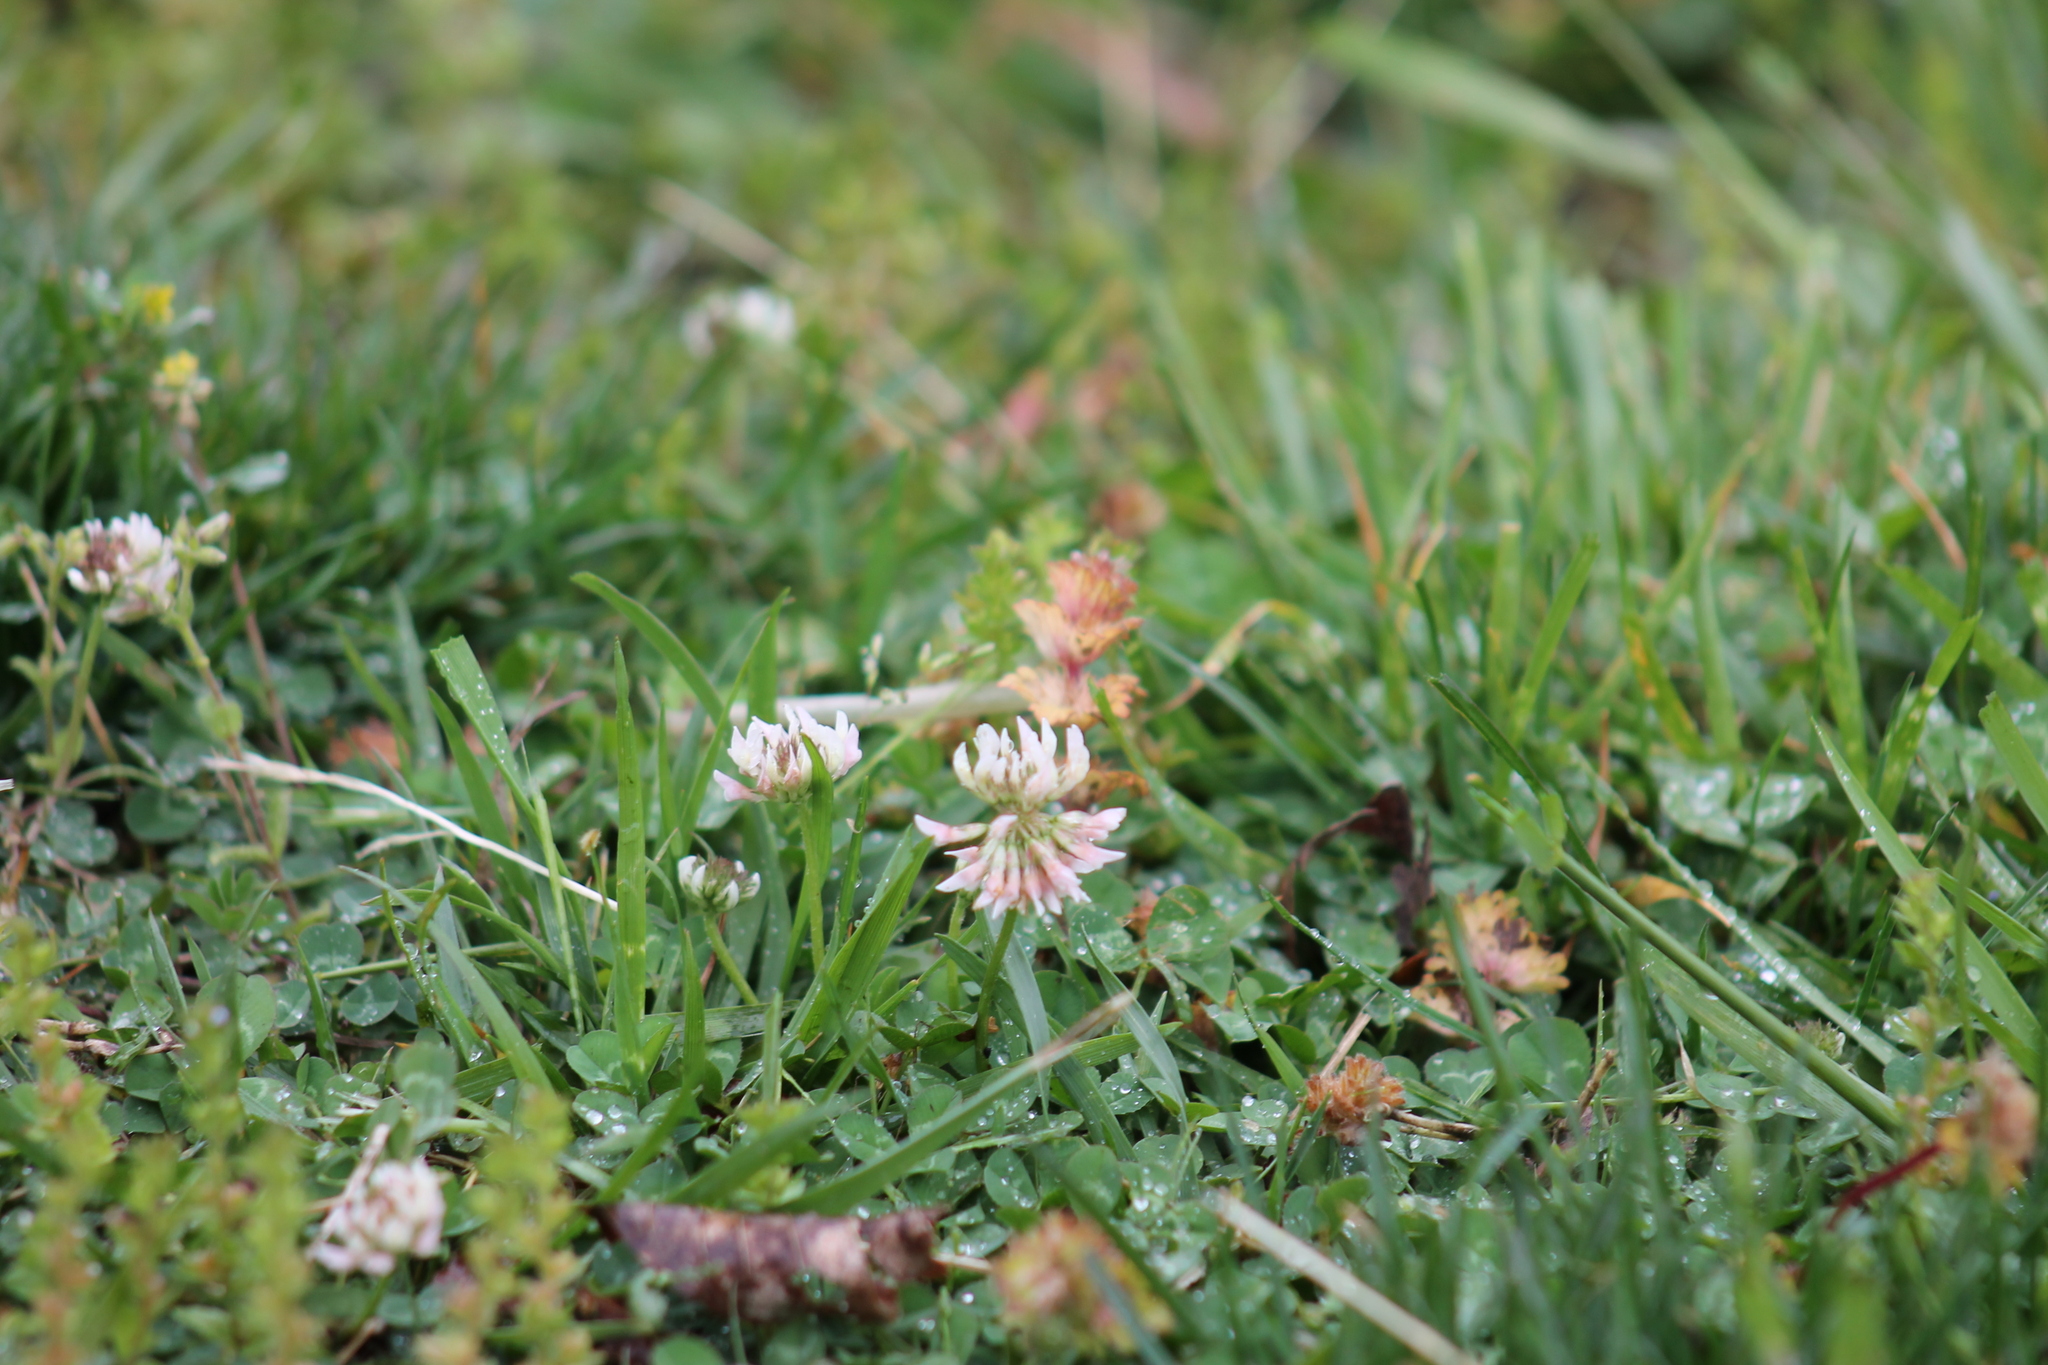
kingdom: Plantae
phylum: Tracheophyta
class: Magnoliopsida
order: Fabales
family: Fabaceae
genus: Trifolium
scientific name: Trifolium repens
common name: White clover
